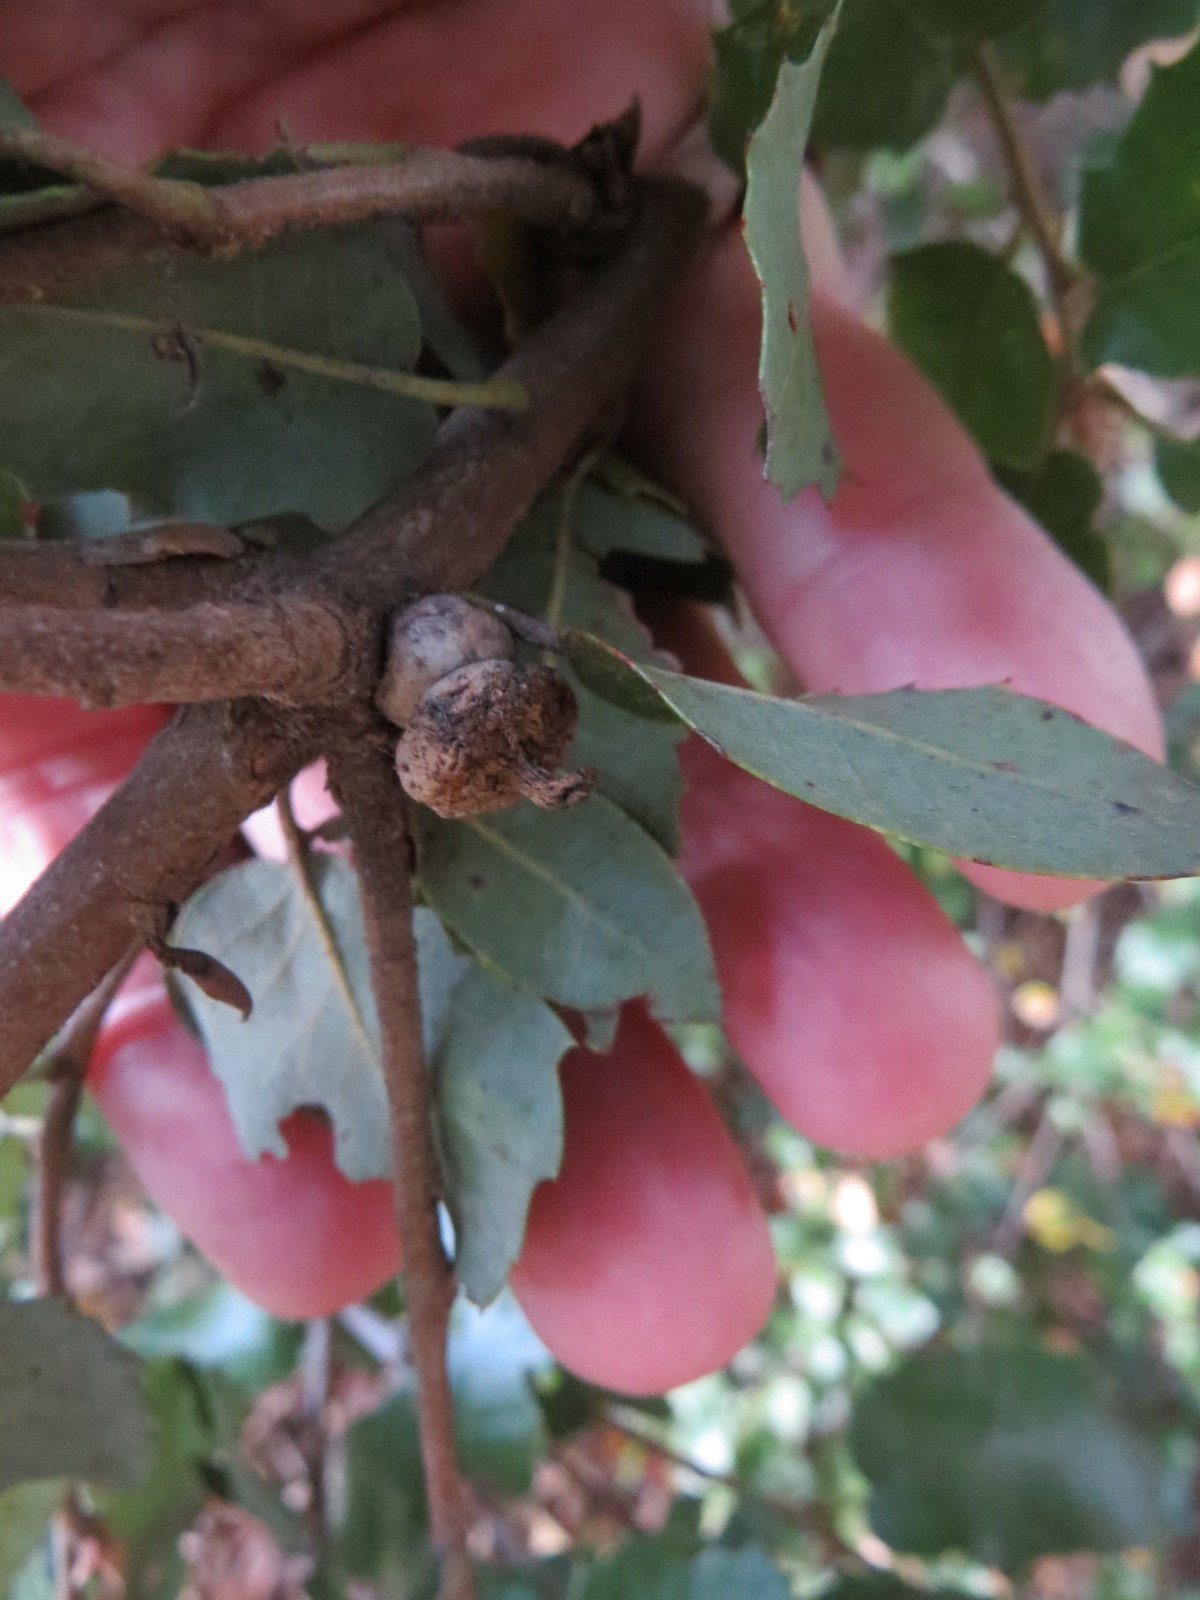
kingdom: Animalia
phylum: Arthropoda
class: Insecta
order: Hymenoptera
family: Cynipidae
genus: Heteroecus
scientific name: Heteroecus
